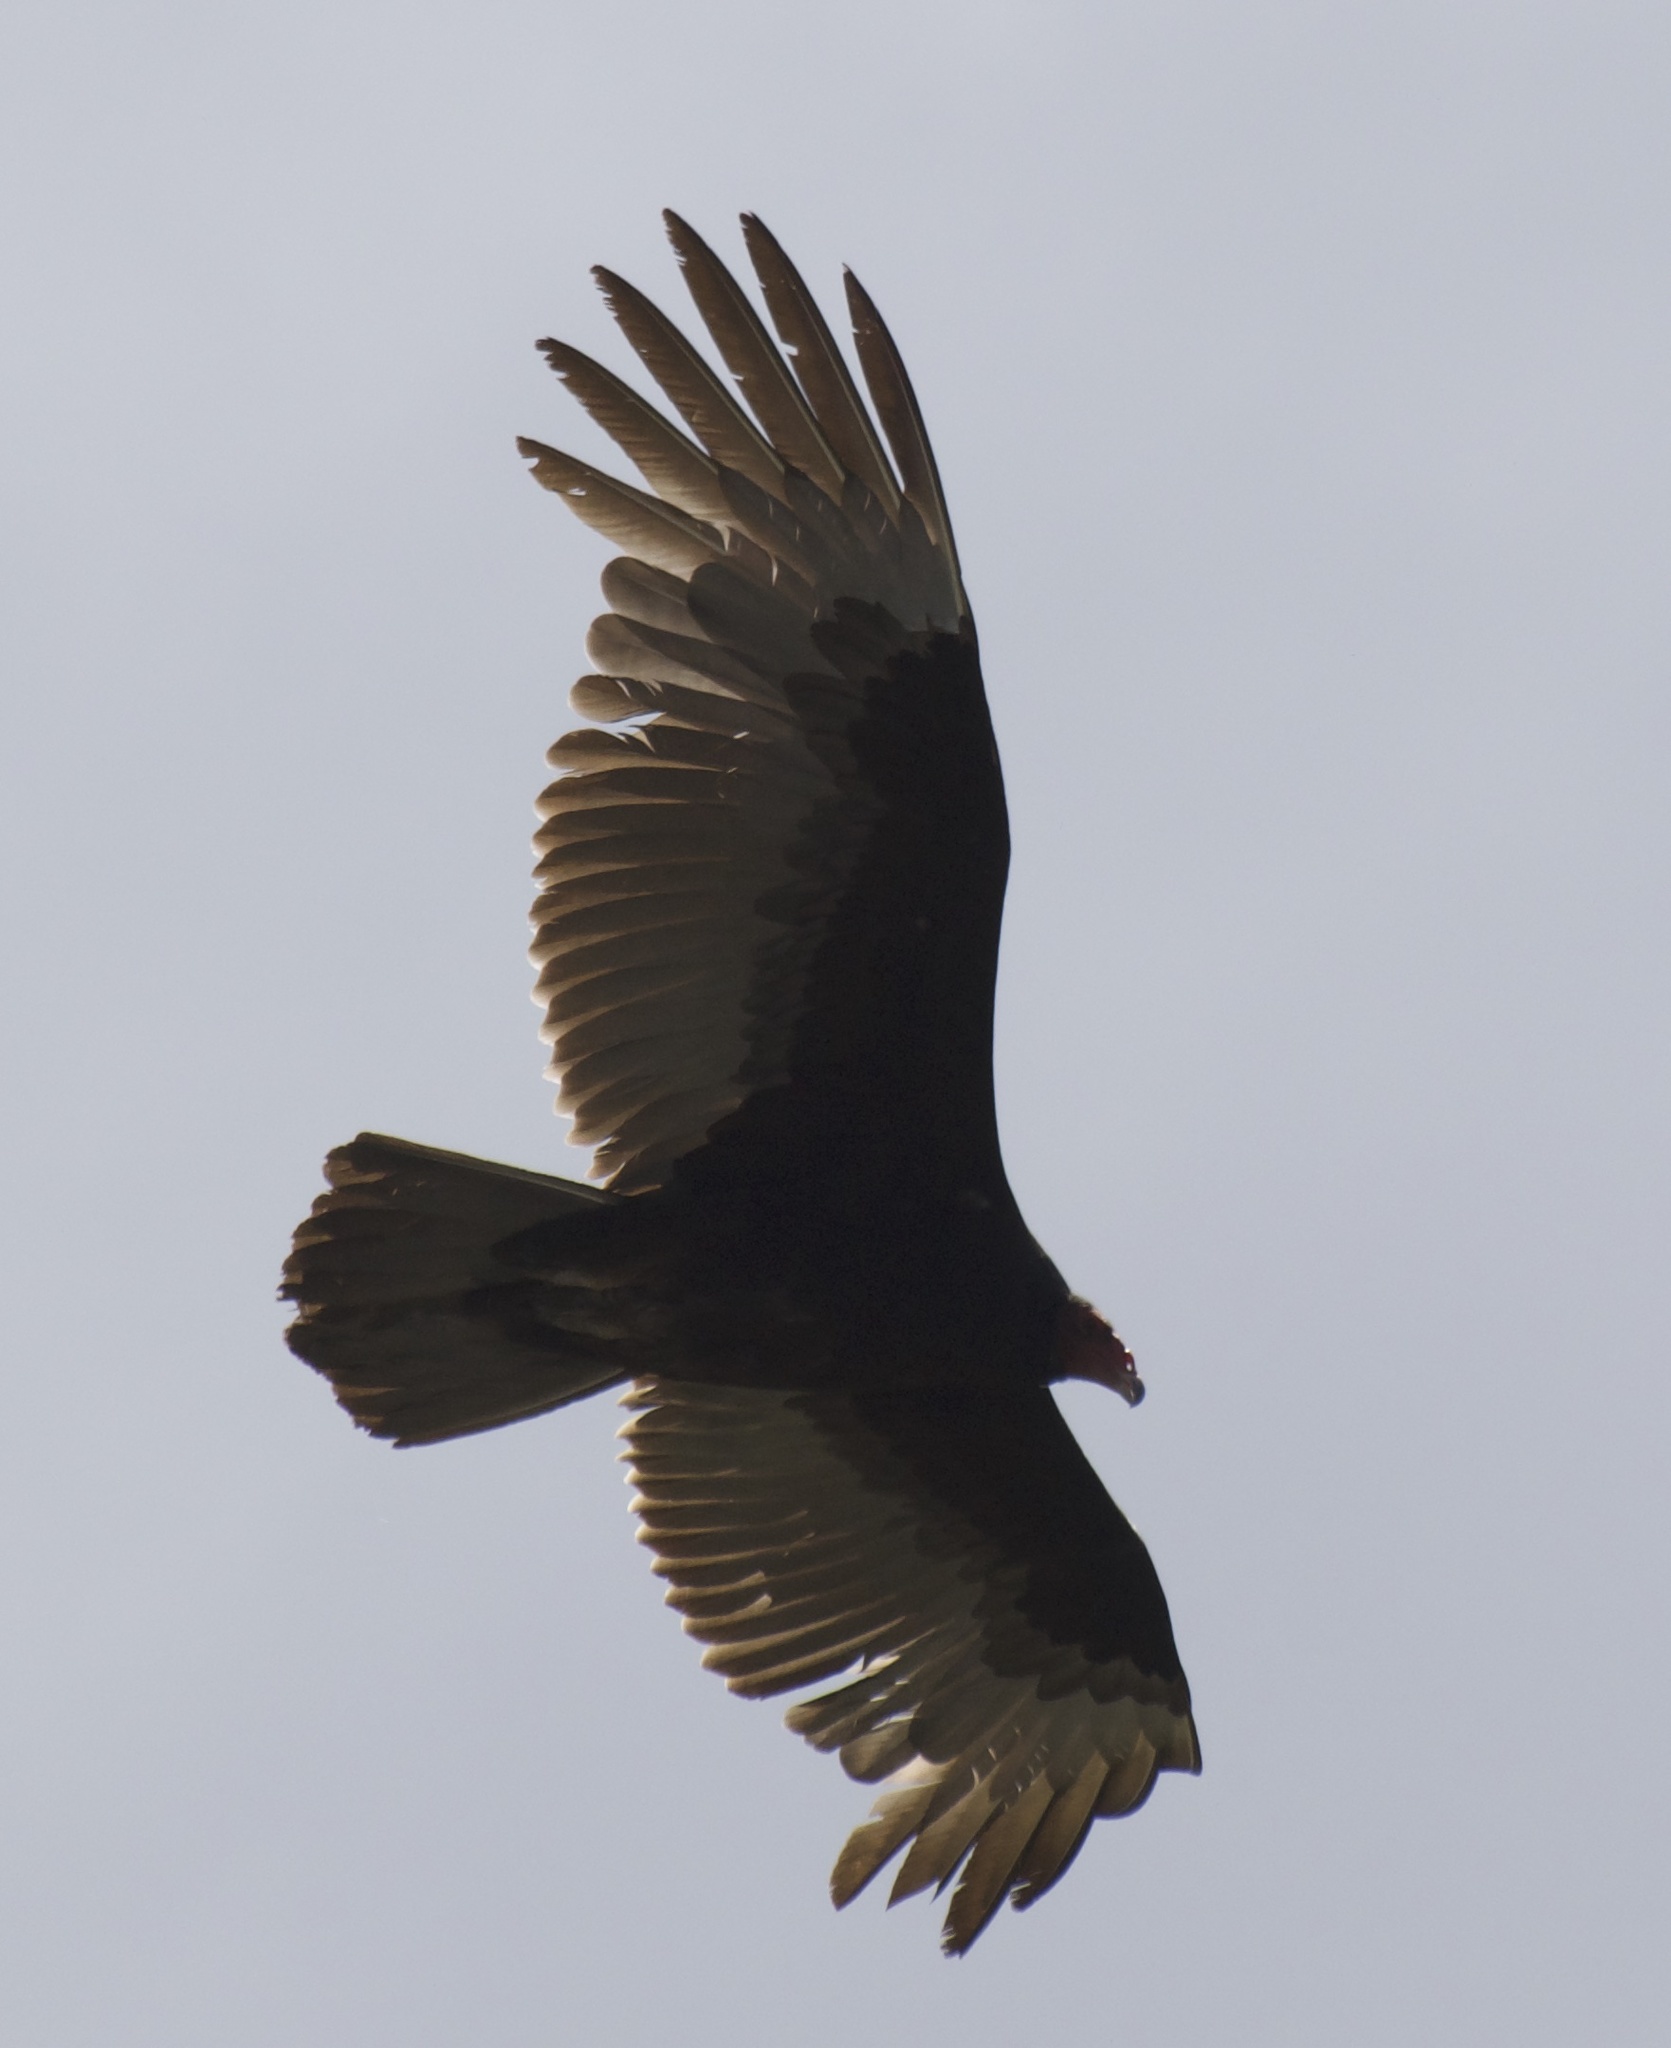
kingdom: Animalia
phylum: Chordata
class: Aves
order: Accipitriformes
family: Cathartidae
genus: Cathartes
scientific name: Cathartes aura
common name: Turkey vulture
